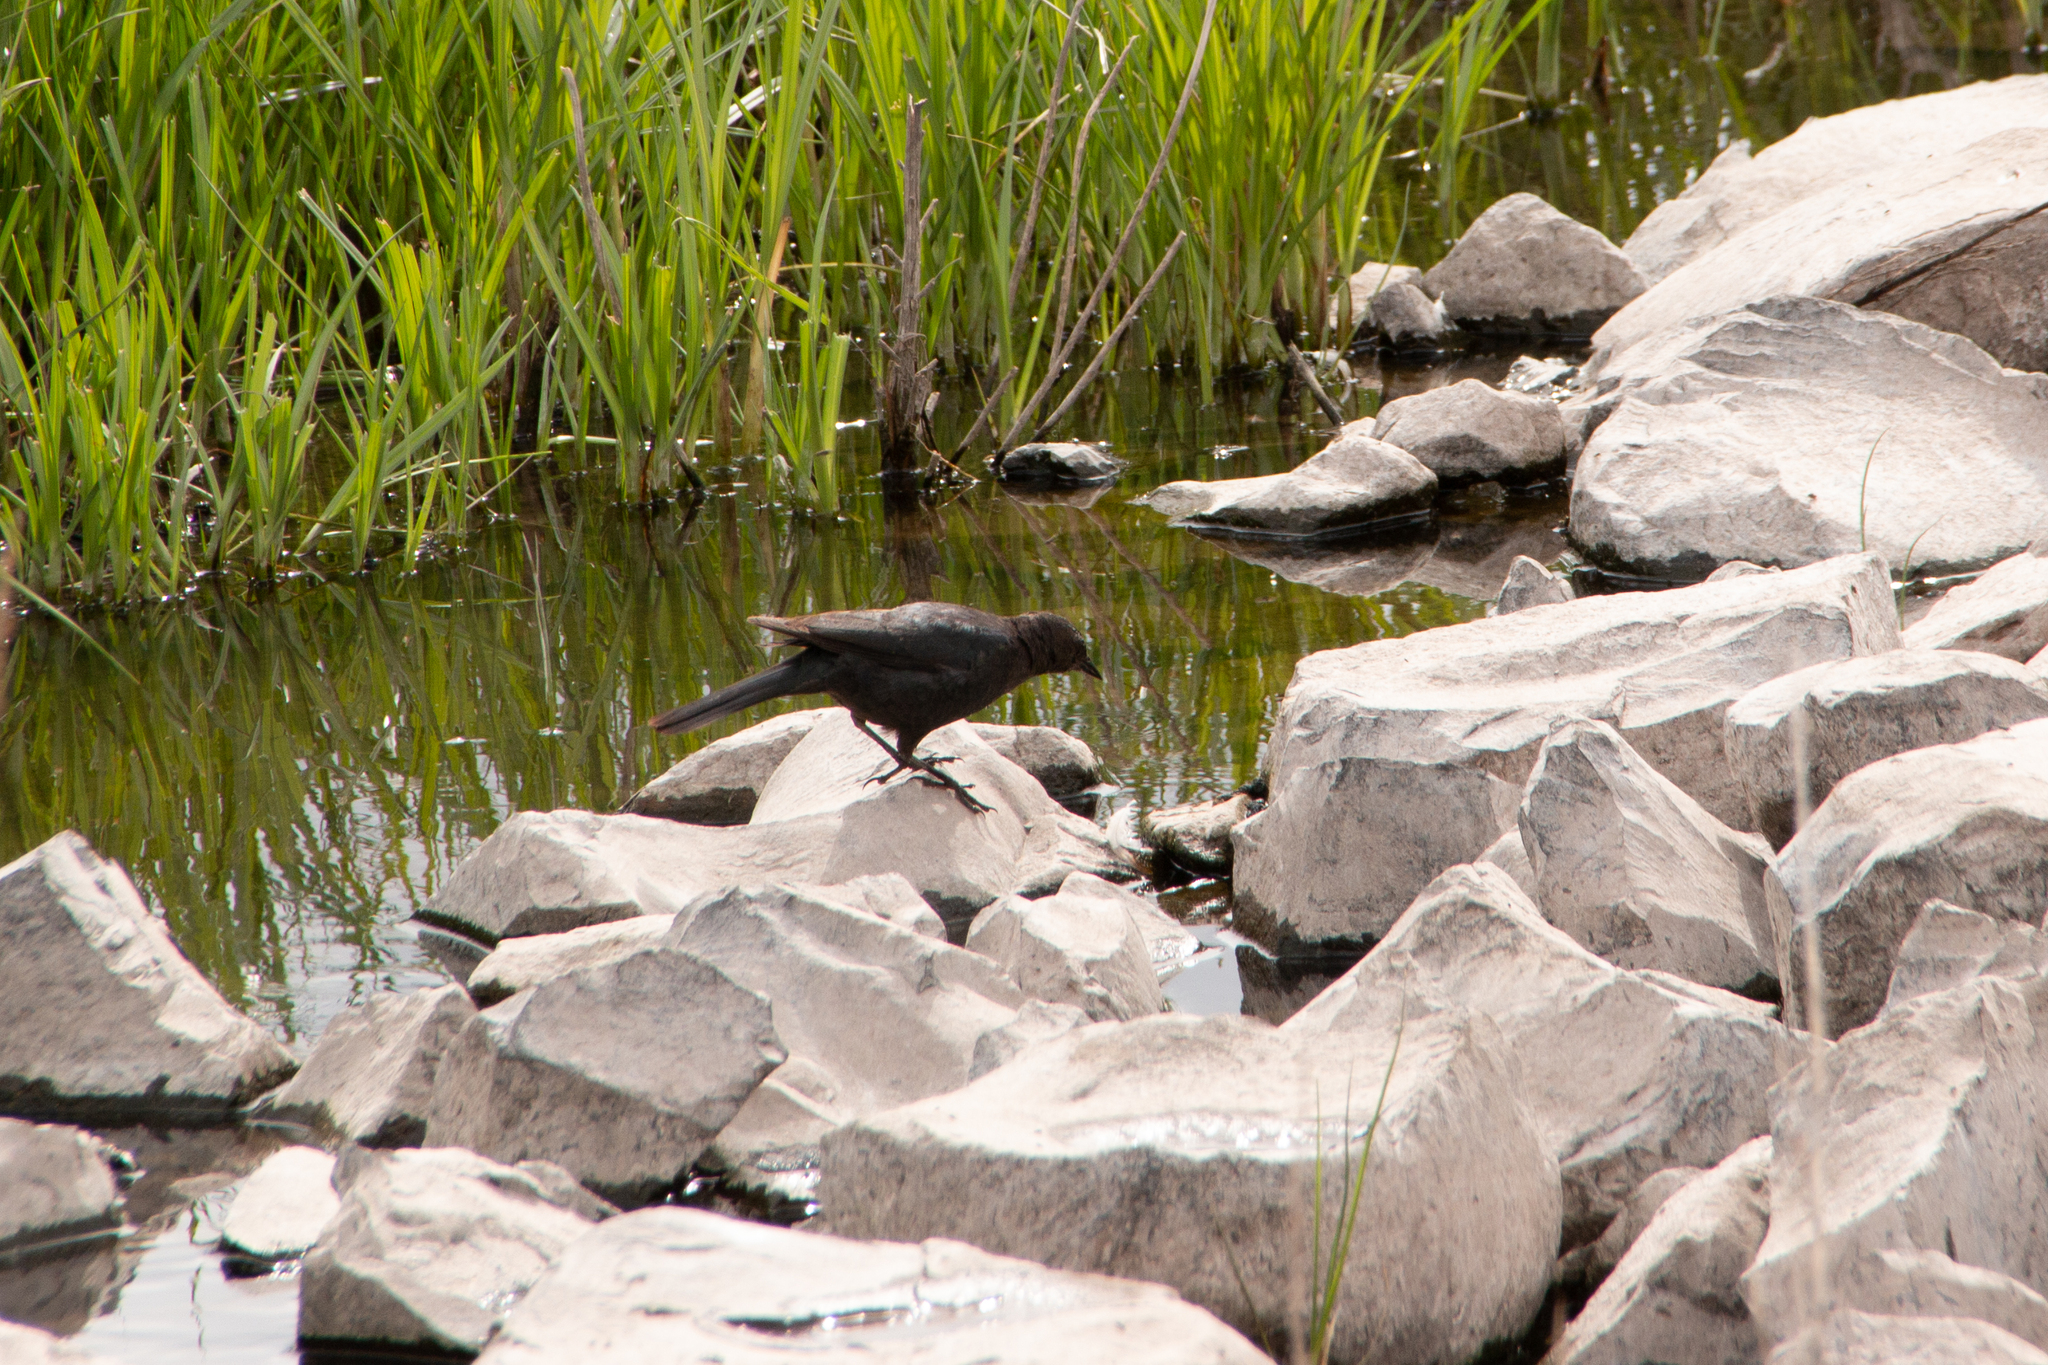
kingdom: Animalia
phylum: Chordata
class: Aves
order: Passeriformes
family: Icteridae
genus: Euphagus
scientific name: Euphagus cyanocephalus
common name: Brewer's blackbird
